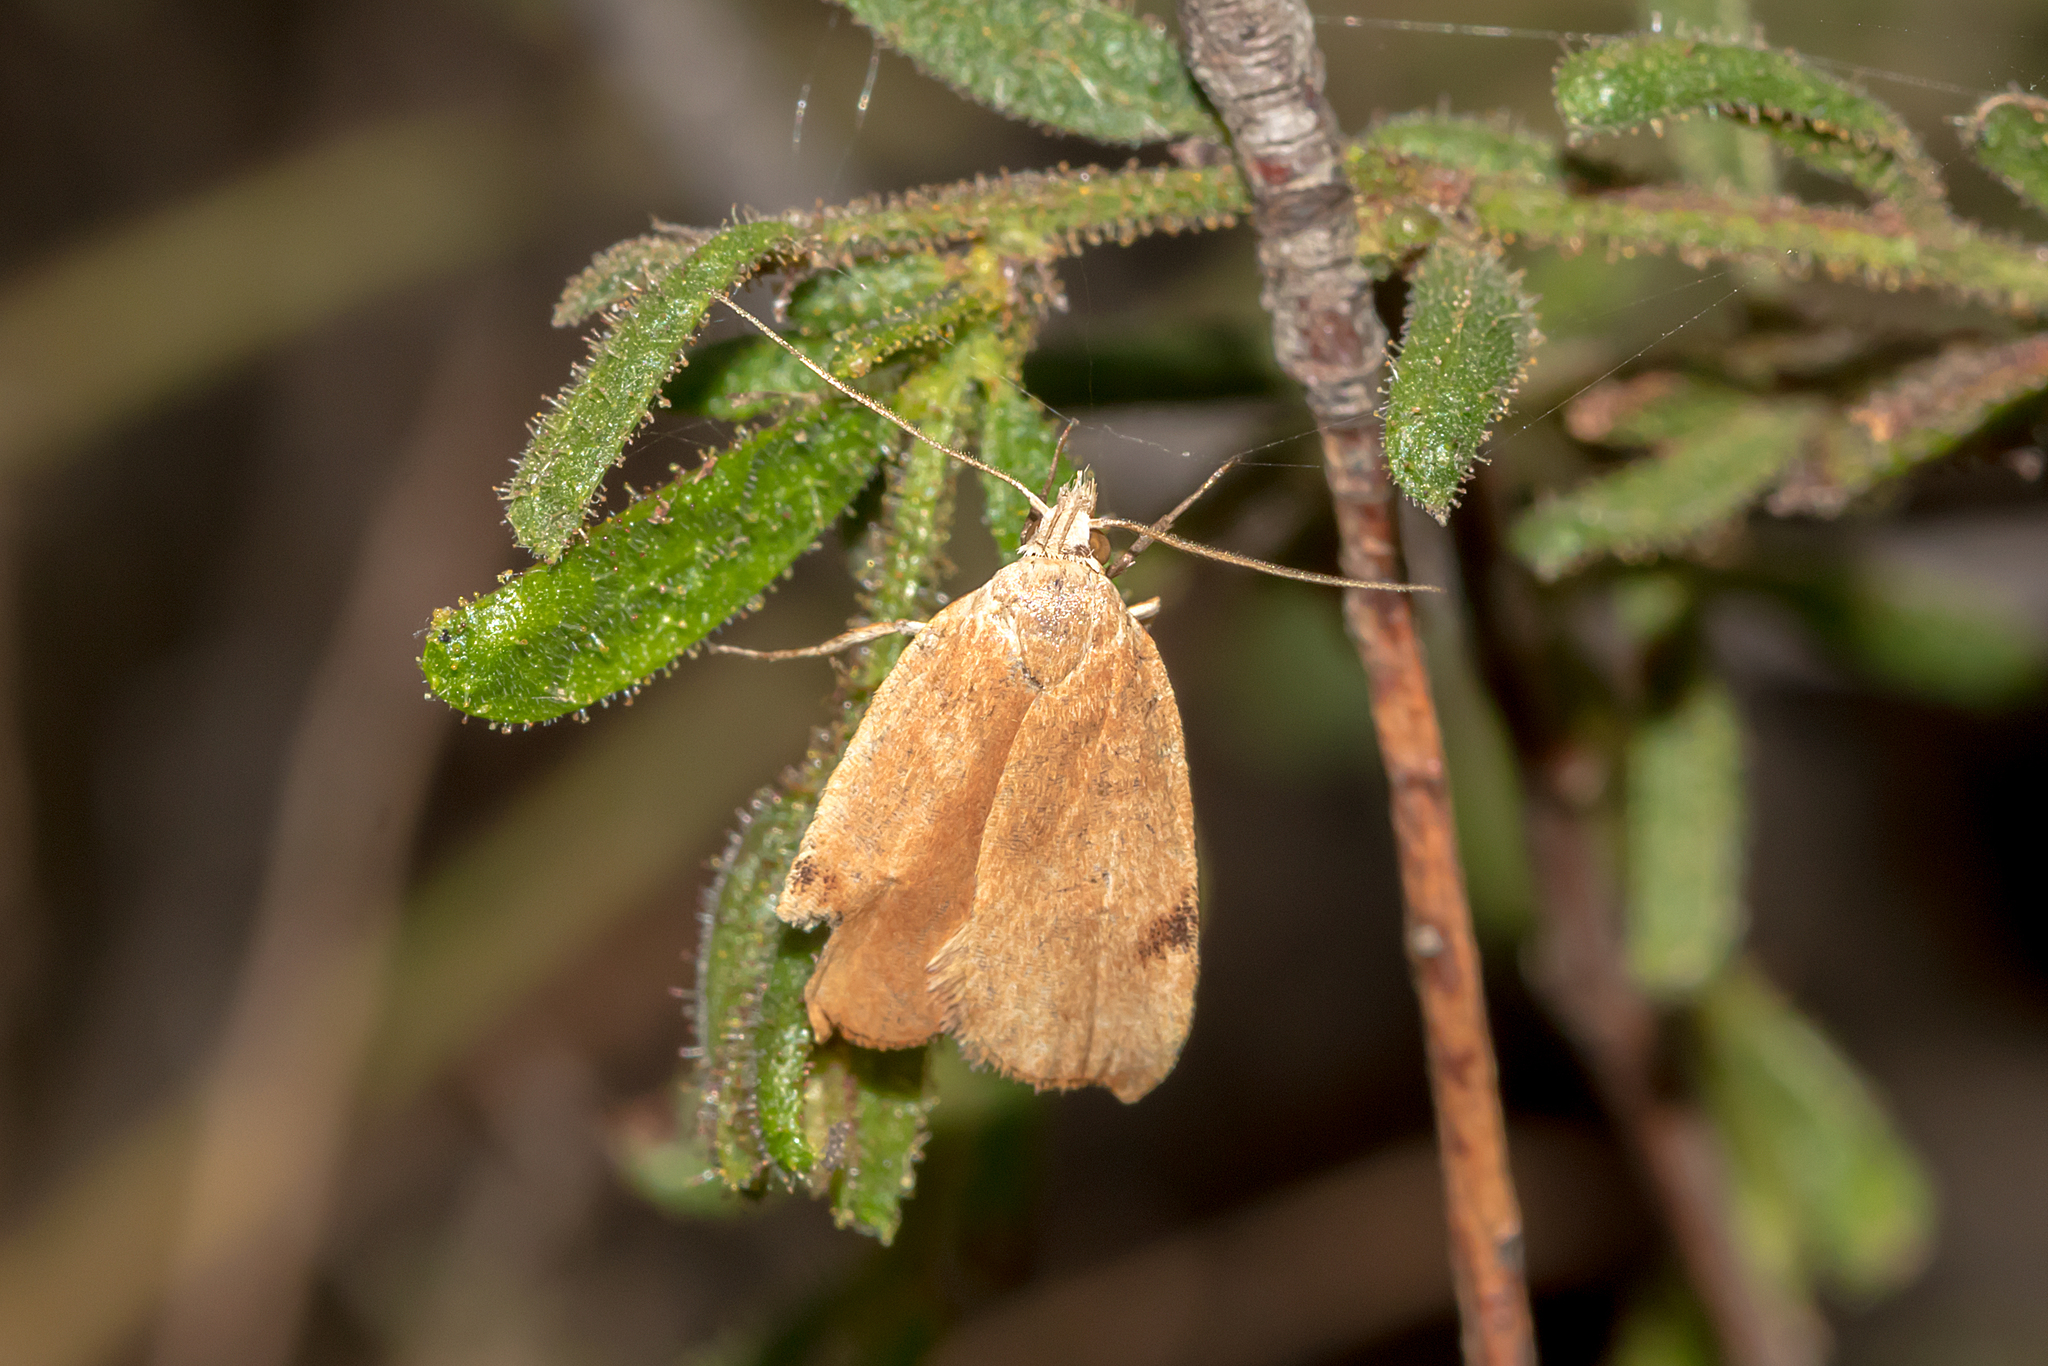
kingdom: Animalia
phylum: Arthropoda
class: Insecta
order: Lepidoptera
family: Oecophoridae
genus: Tortricopsis
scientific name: Tortricopsis uncinella
